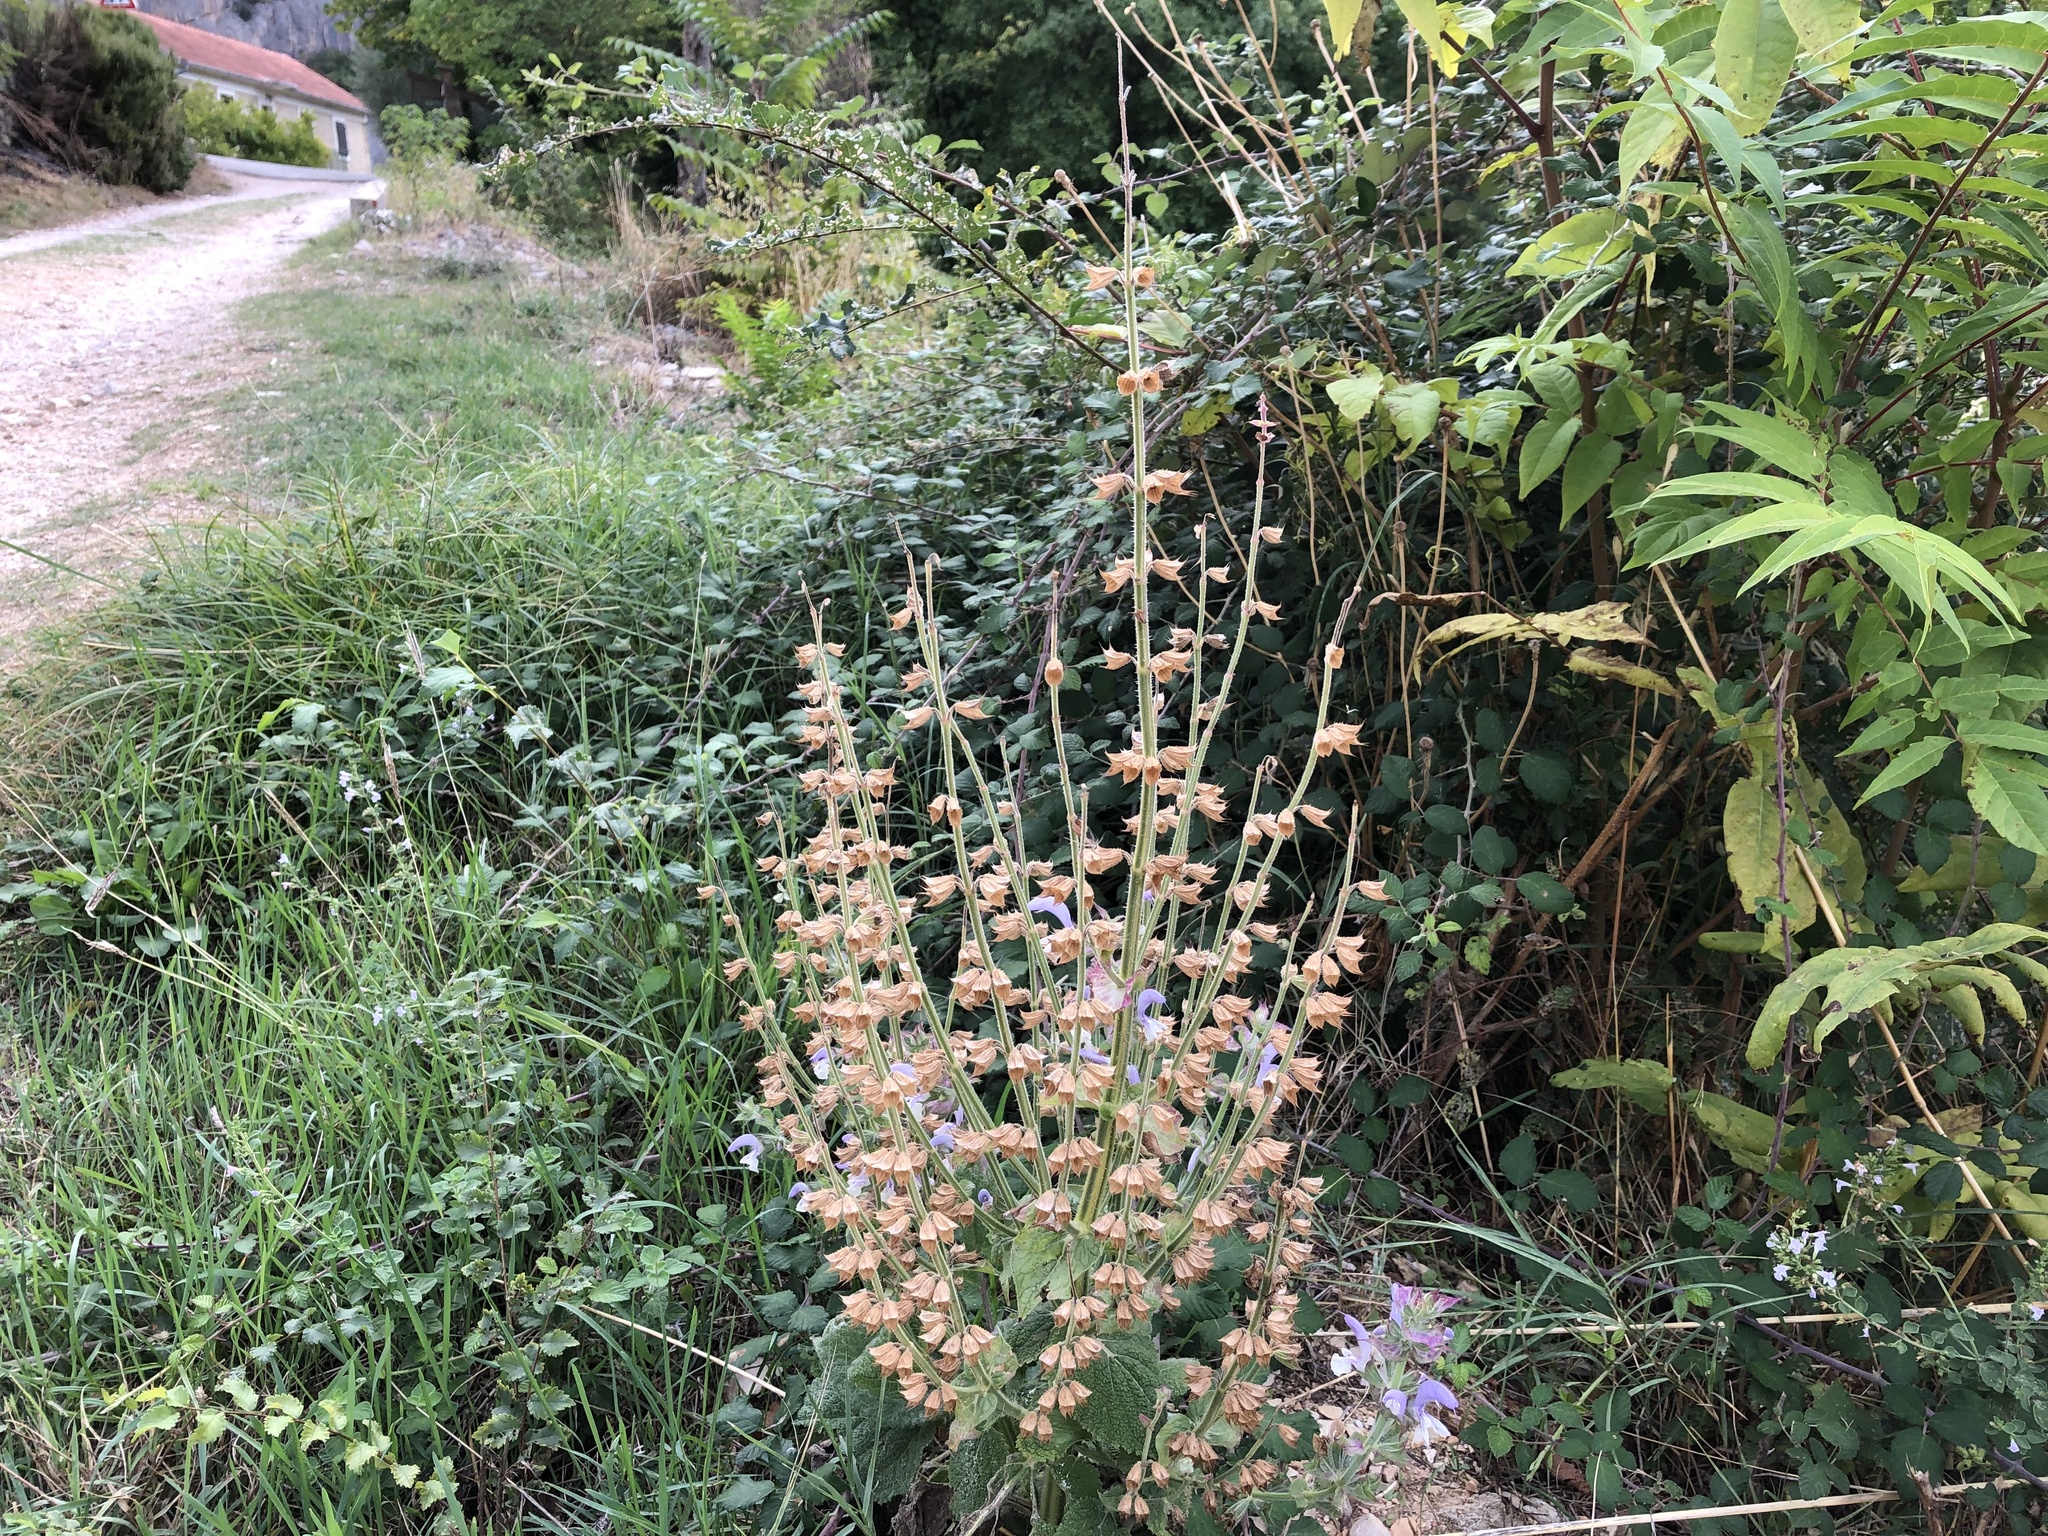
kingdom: Plantae
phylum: Tracheophyta
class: Magnoliopsida
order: Lamiales
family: Lamiaceae
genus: Salvia
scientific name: Salvia sclarea
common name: Clary
